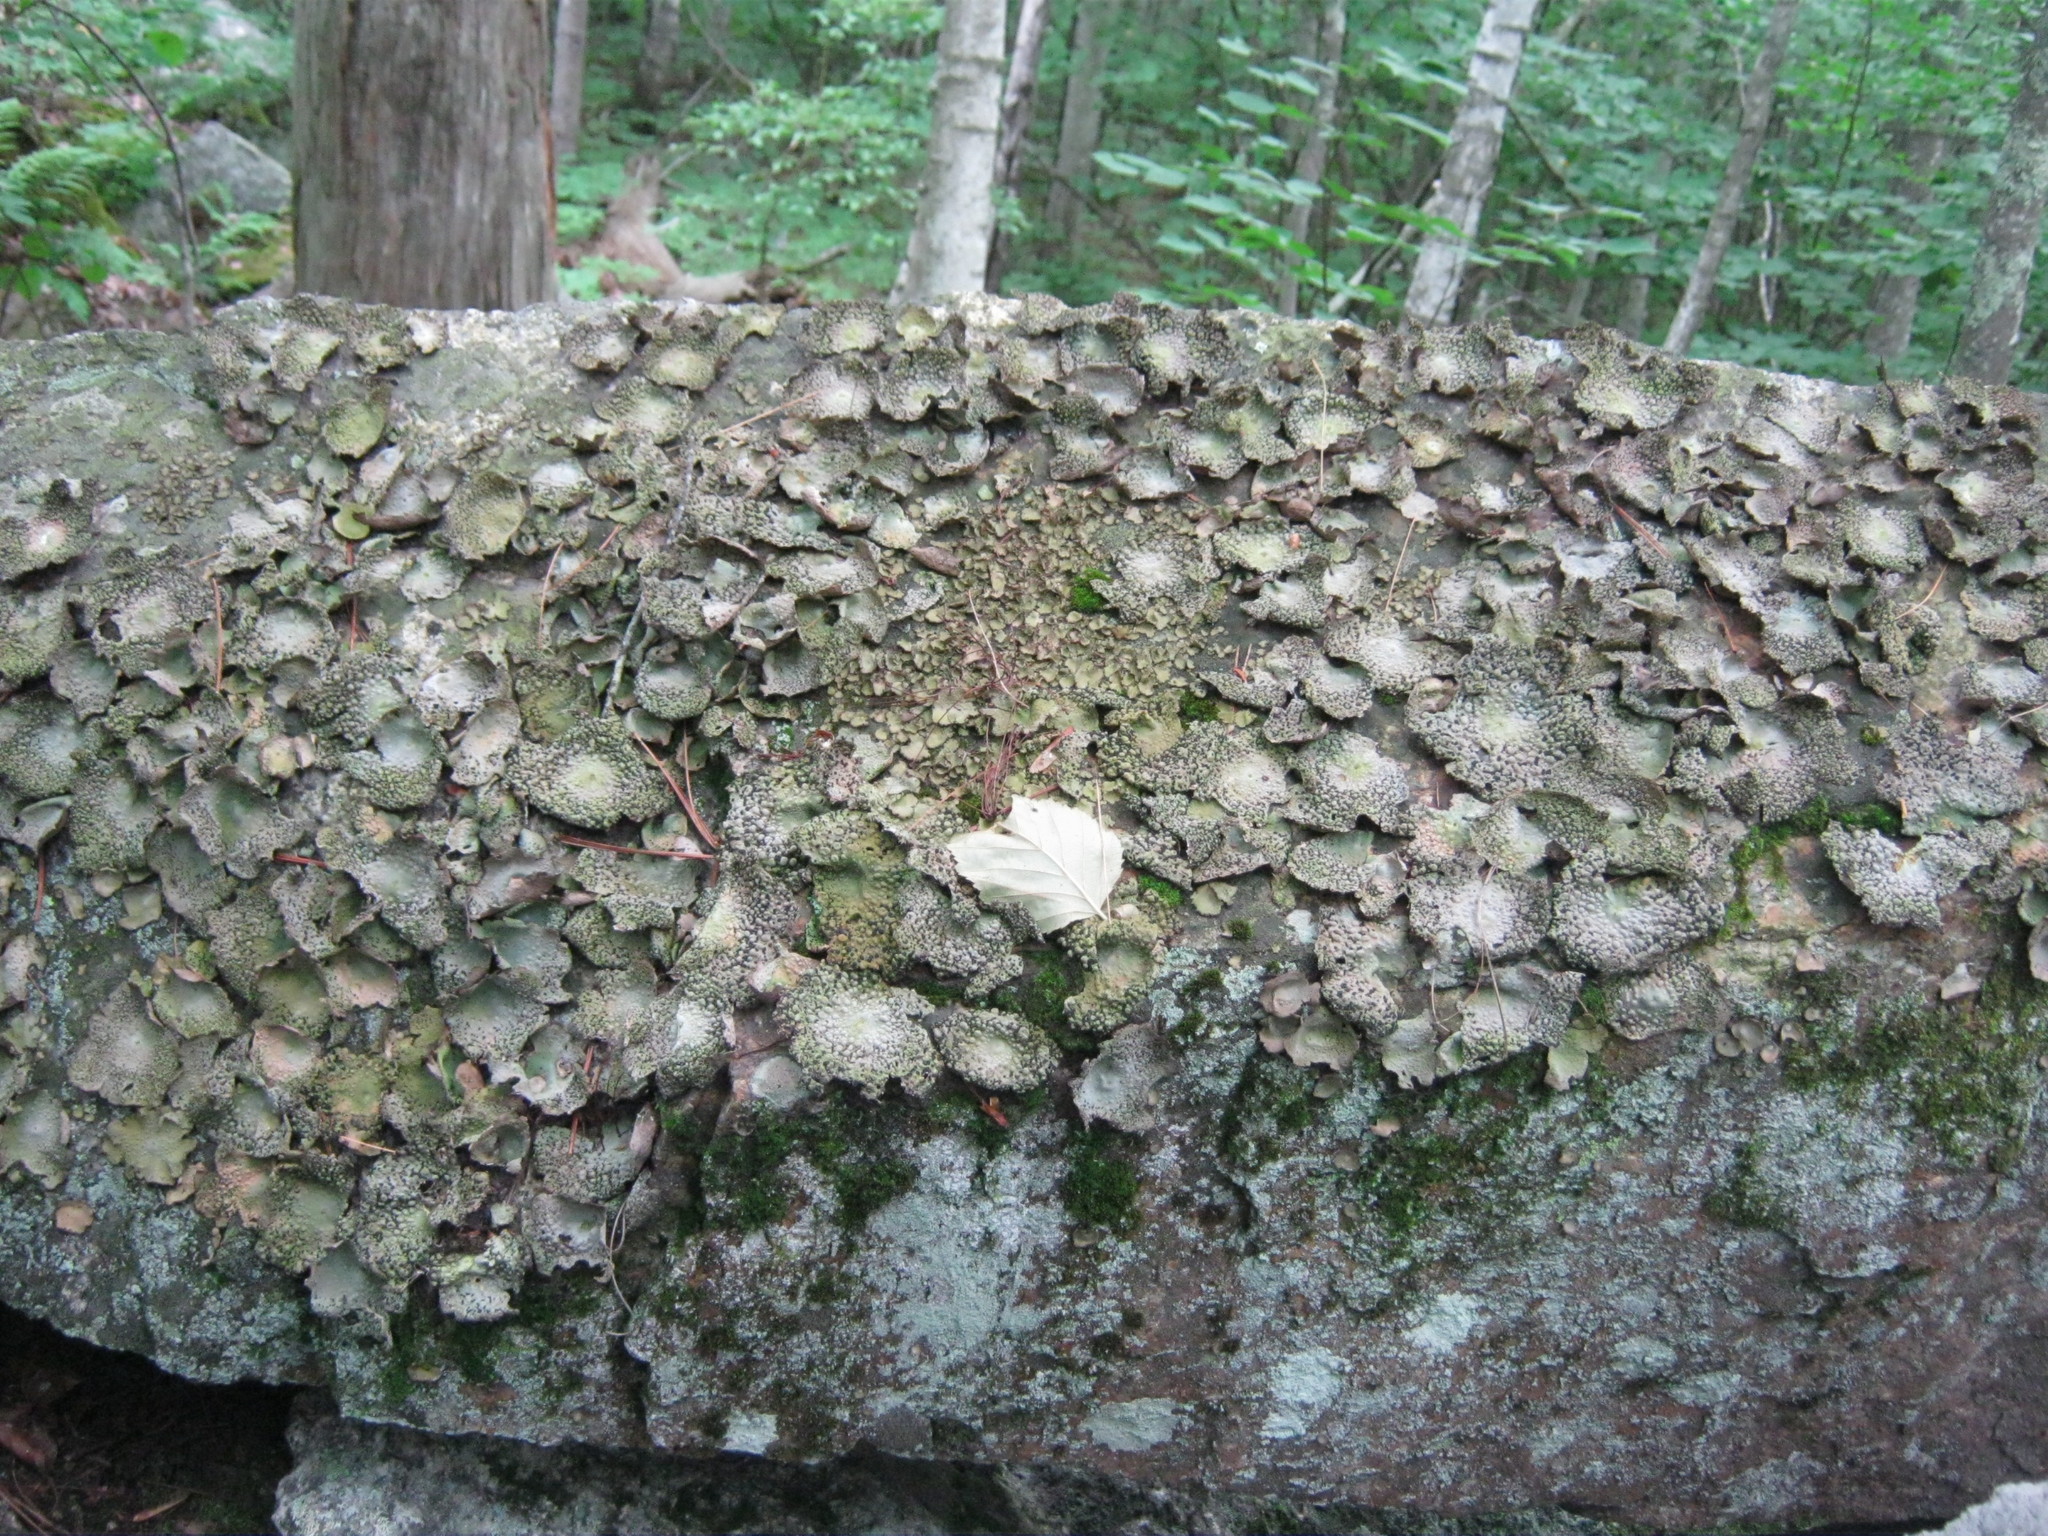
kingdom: Fungi
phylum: Ascomycota
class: Lecanoromycetes
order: Umbilicariales
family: Umbilicariaceae
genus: Lasallia
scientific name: Lasallia papulosa
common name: Common toadskin lichen
